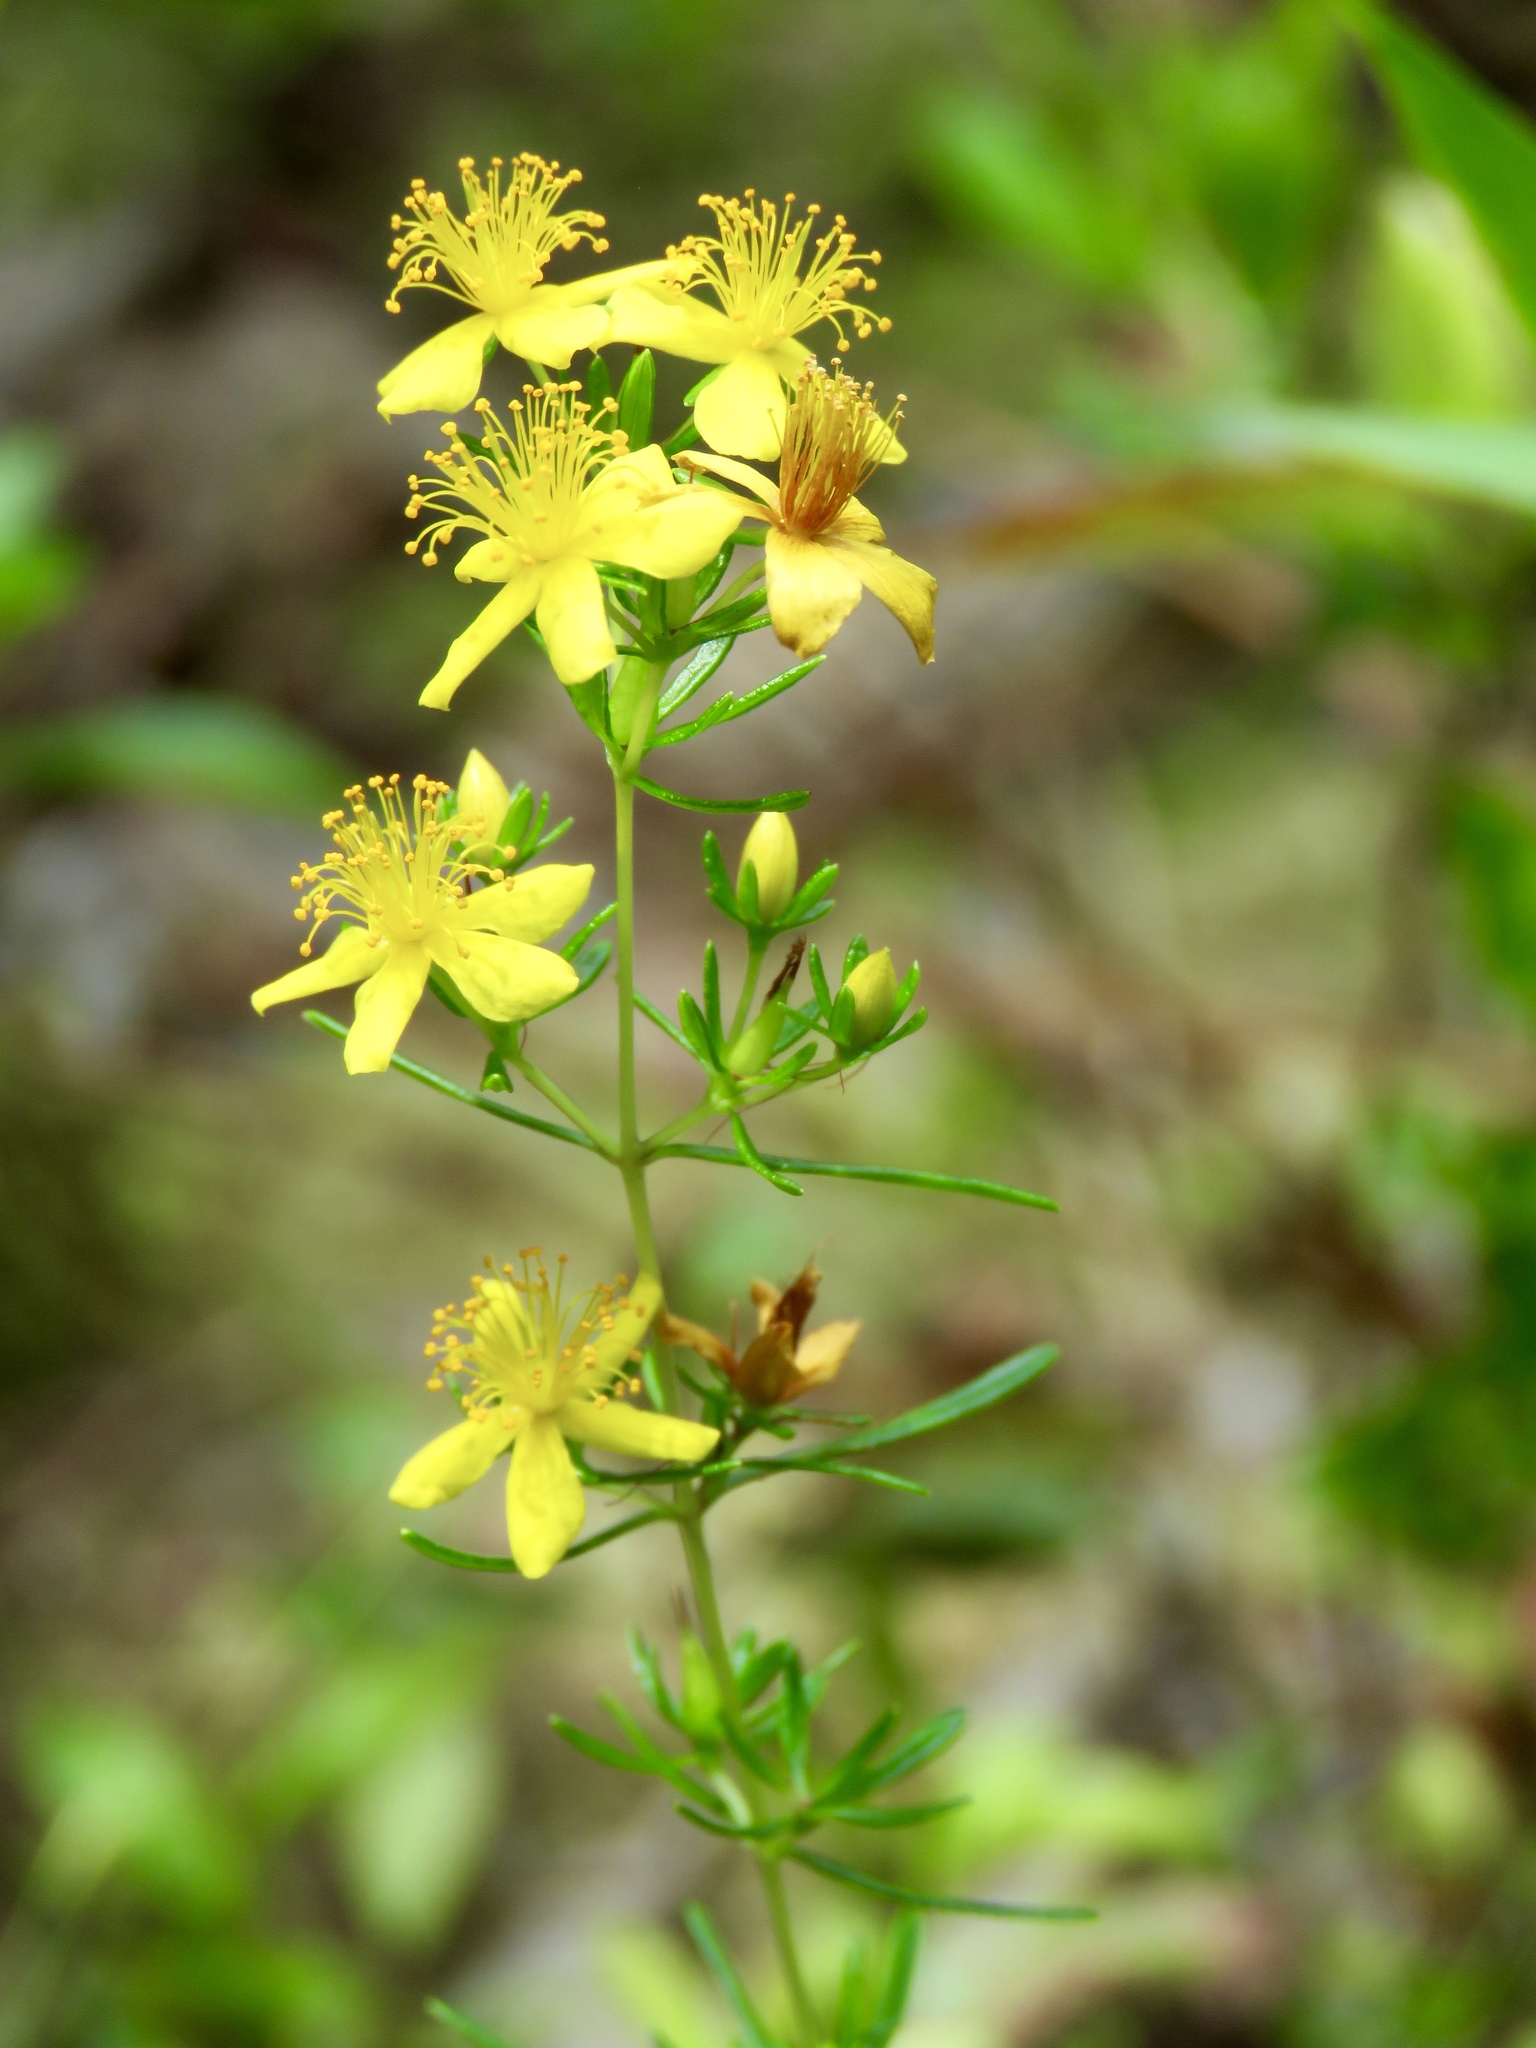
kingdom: Plantae
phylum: Tracheophyta
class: Magnoliopsida
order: Malpighiales
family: Hypericaceae
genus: Hypericum
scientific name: Hypericum galioides
